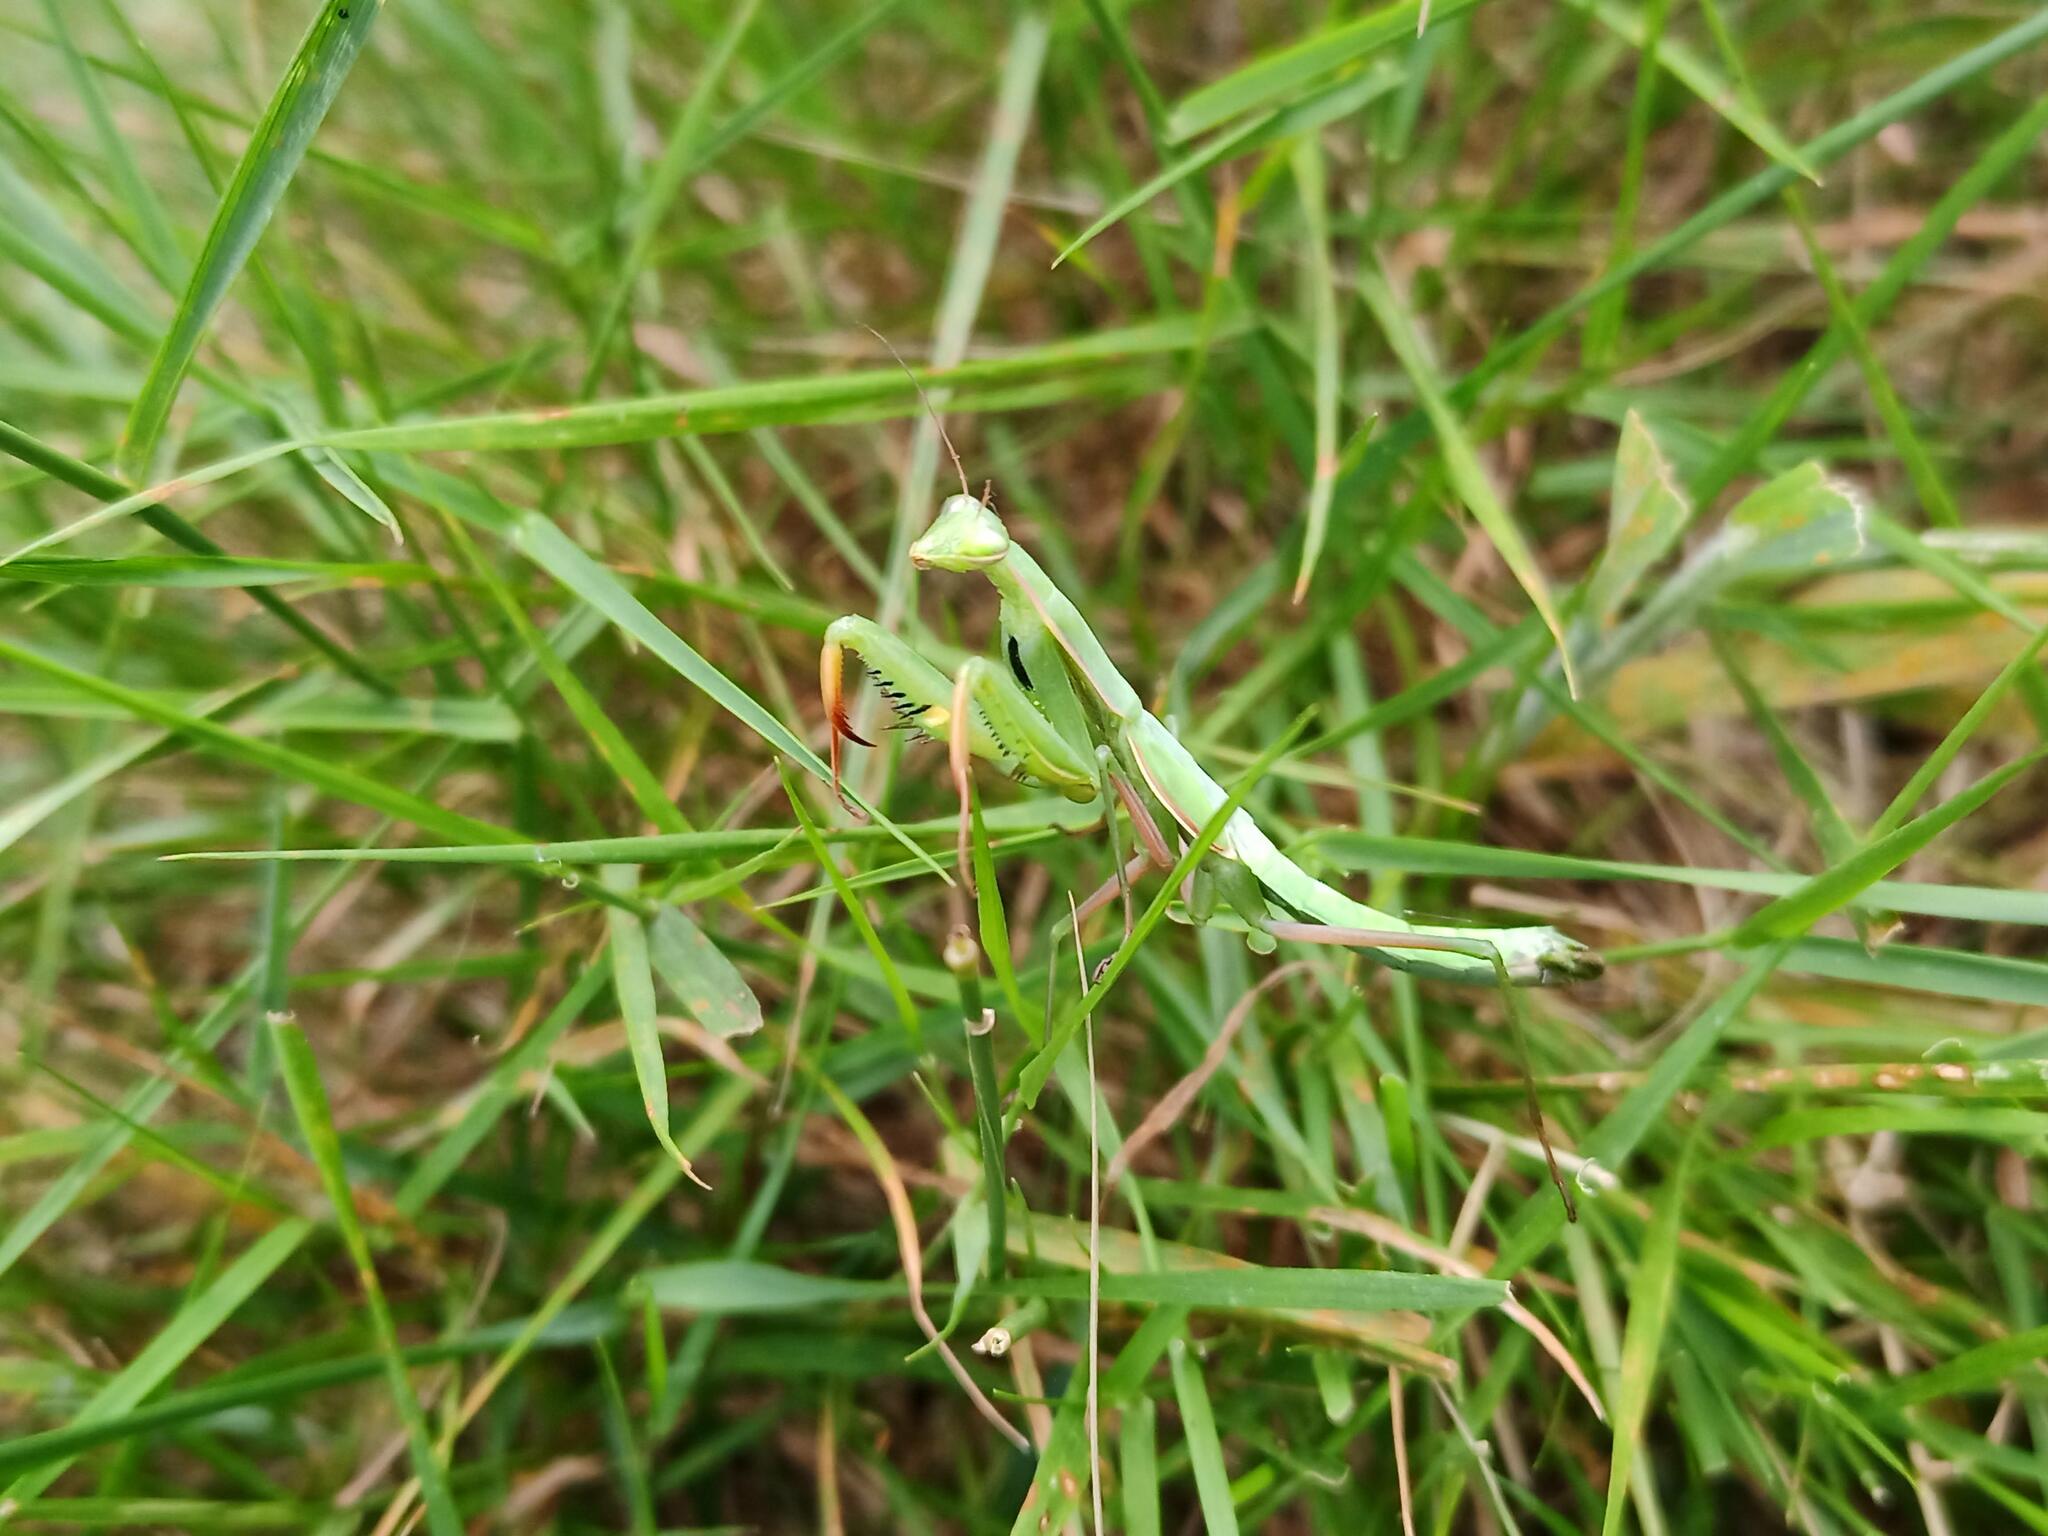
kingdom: Animalia
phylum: Arthropoda
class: Insecta
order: Mantodea
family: Mantidae
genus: Mantis
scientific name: Mantis religiosa
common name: Praying mantis
